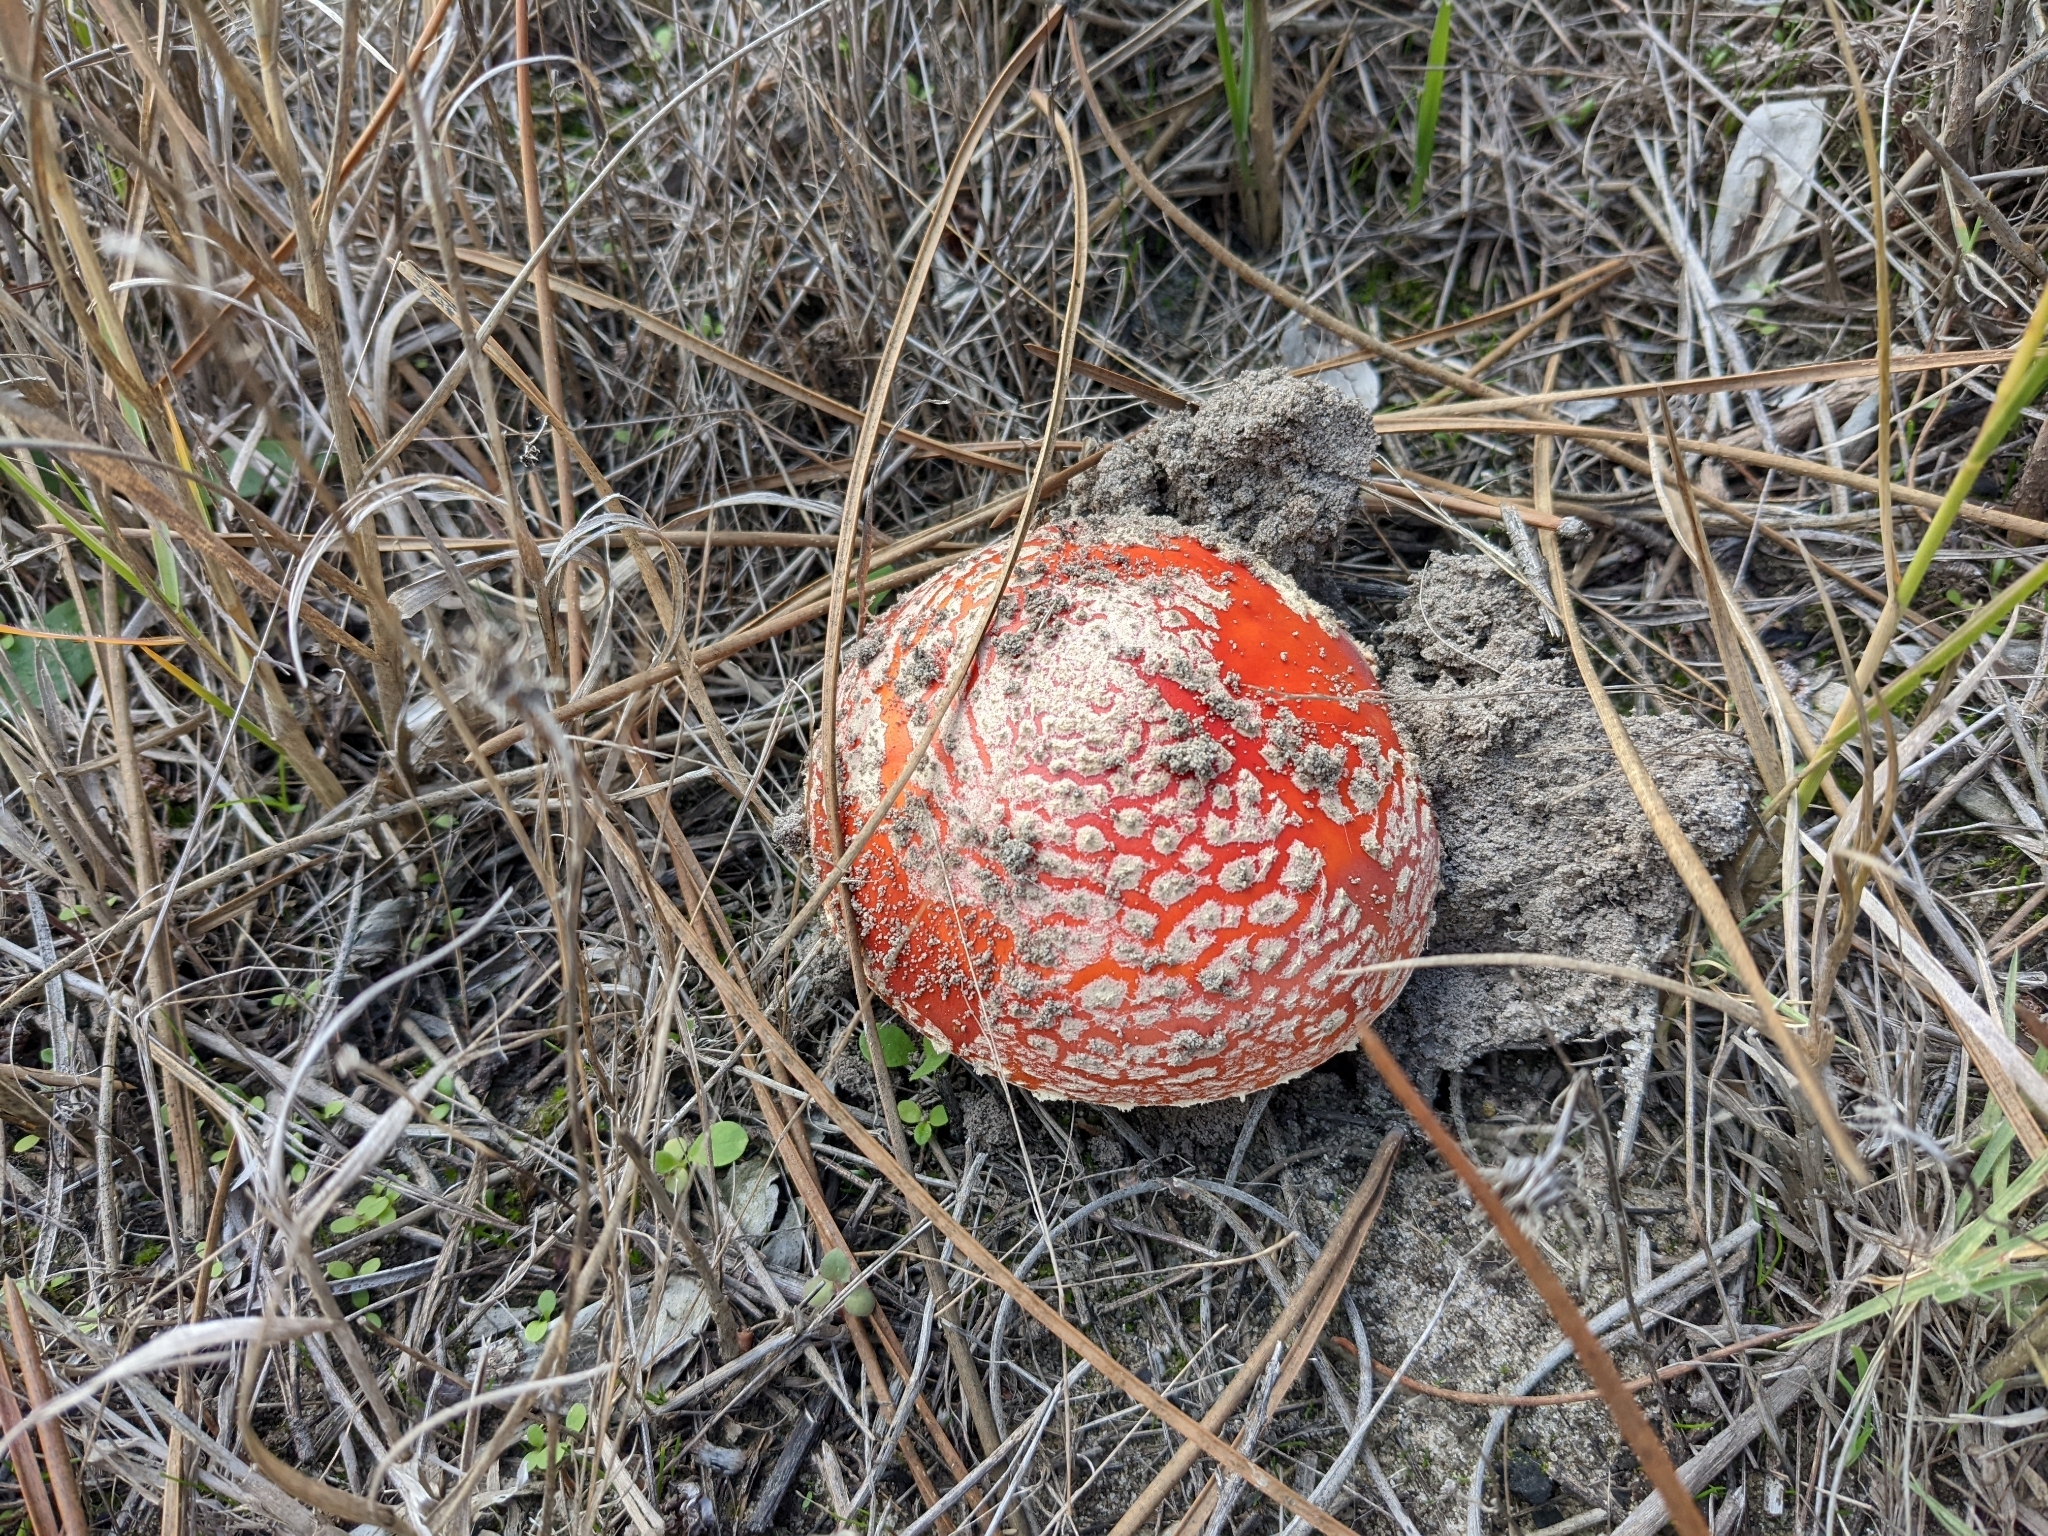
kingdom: Fungi
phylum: Basidiomycota
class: Agaricomycetes
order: Agaricales
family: Amanitaceae
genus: Amanita
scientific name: Amanita muscaria
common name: Fly agaric
